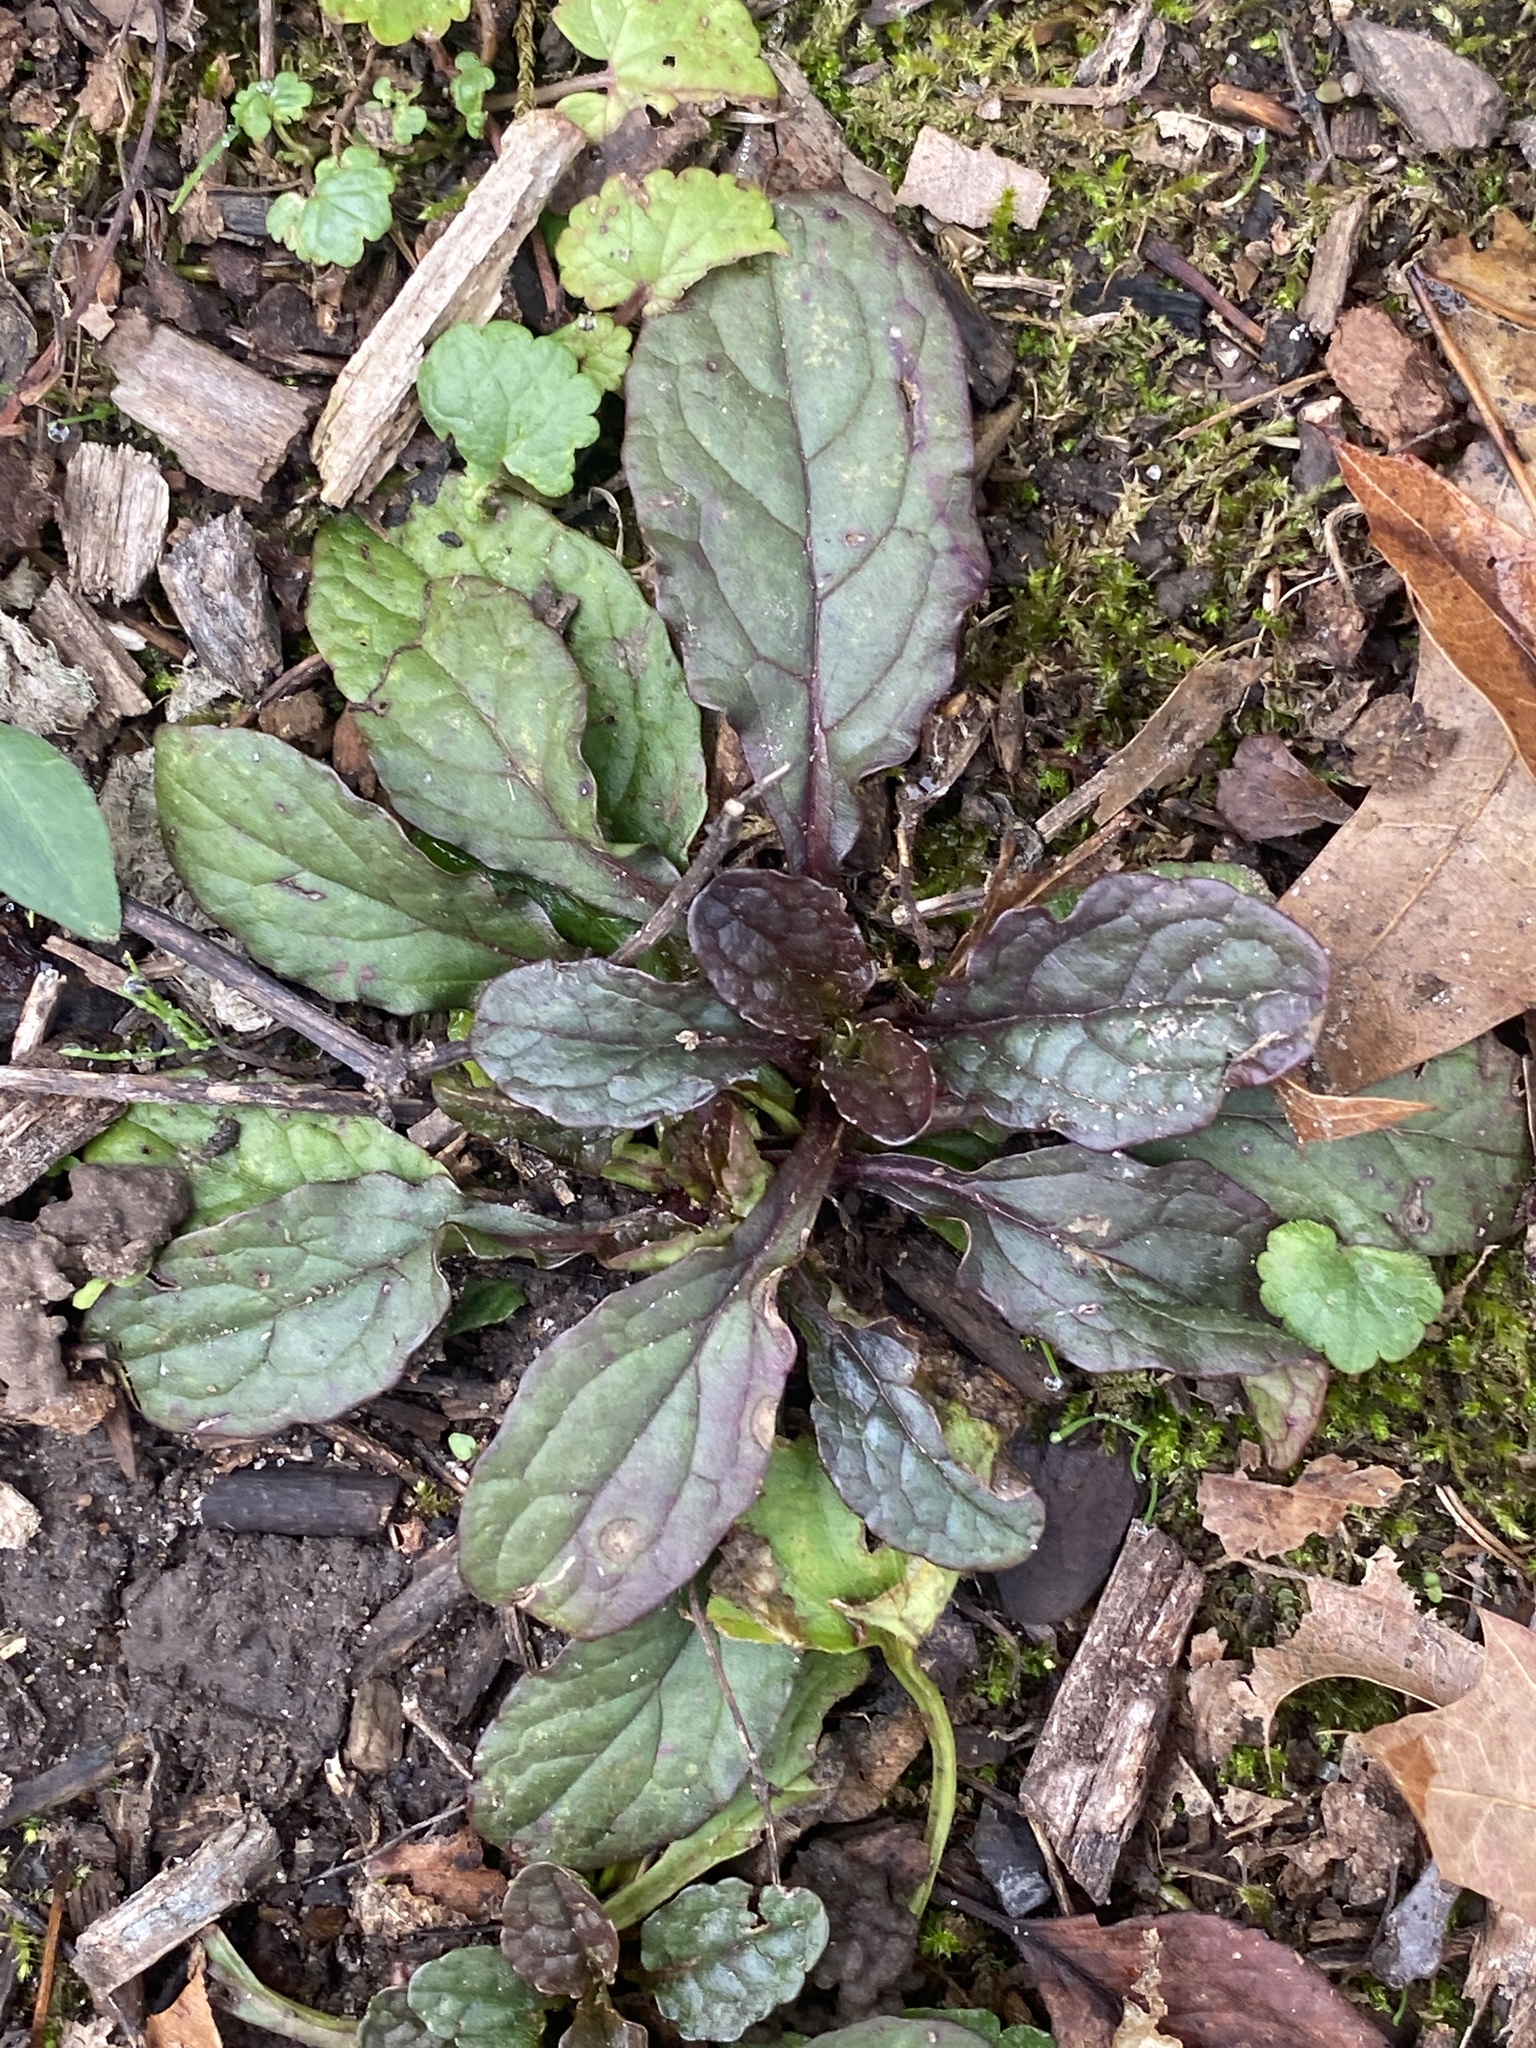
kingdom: Plantae
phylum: Tracheophyta
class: Magnoliopsida
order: Lamiales
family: Lamiaceae
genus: Ajuga
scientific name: Ajuga reptans
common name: Bugle
